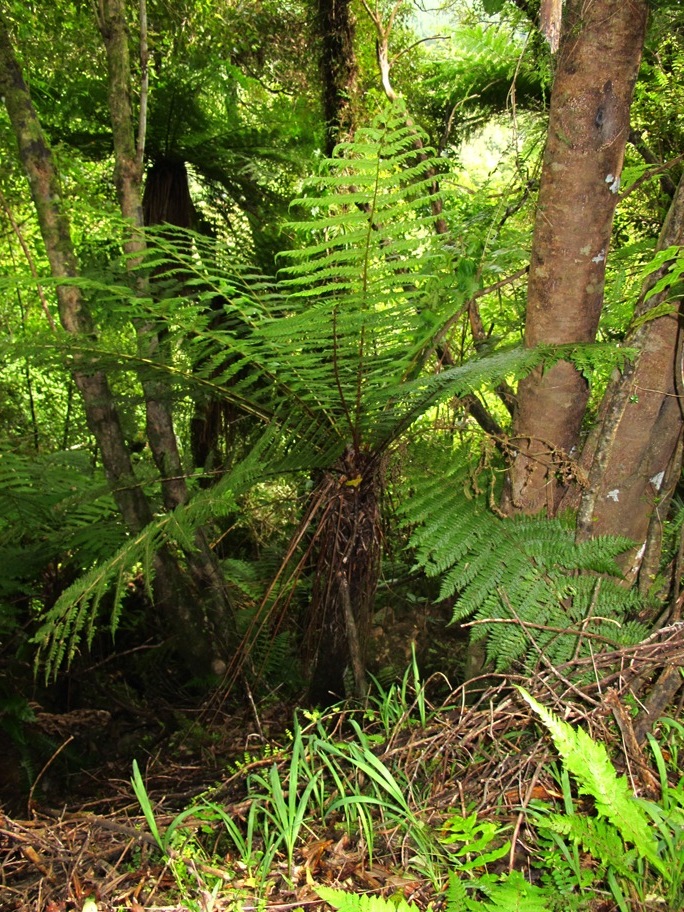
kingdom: Plantae
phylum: Tracheophyta
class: Polypodiopsida
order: Cyatheales
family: Dicksoniaceae
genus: Dicksonia
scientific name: Dicksonia fibrosa
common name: Golden tree fern
